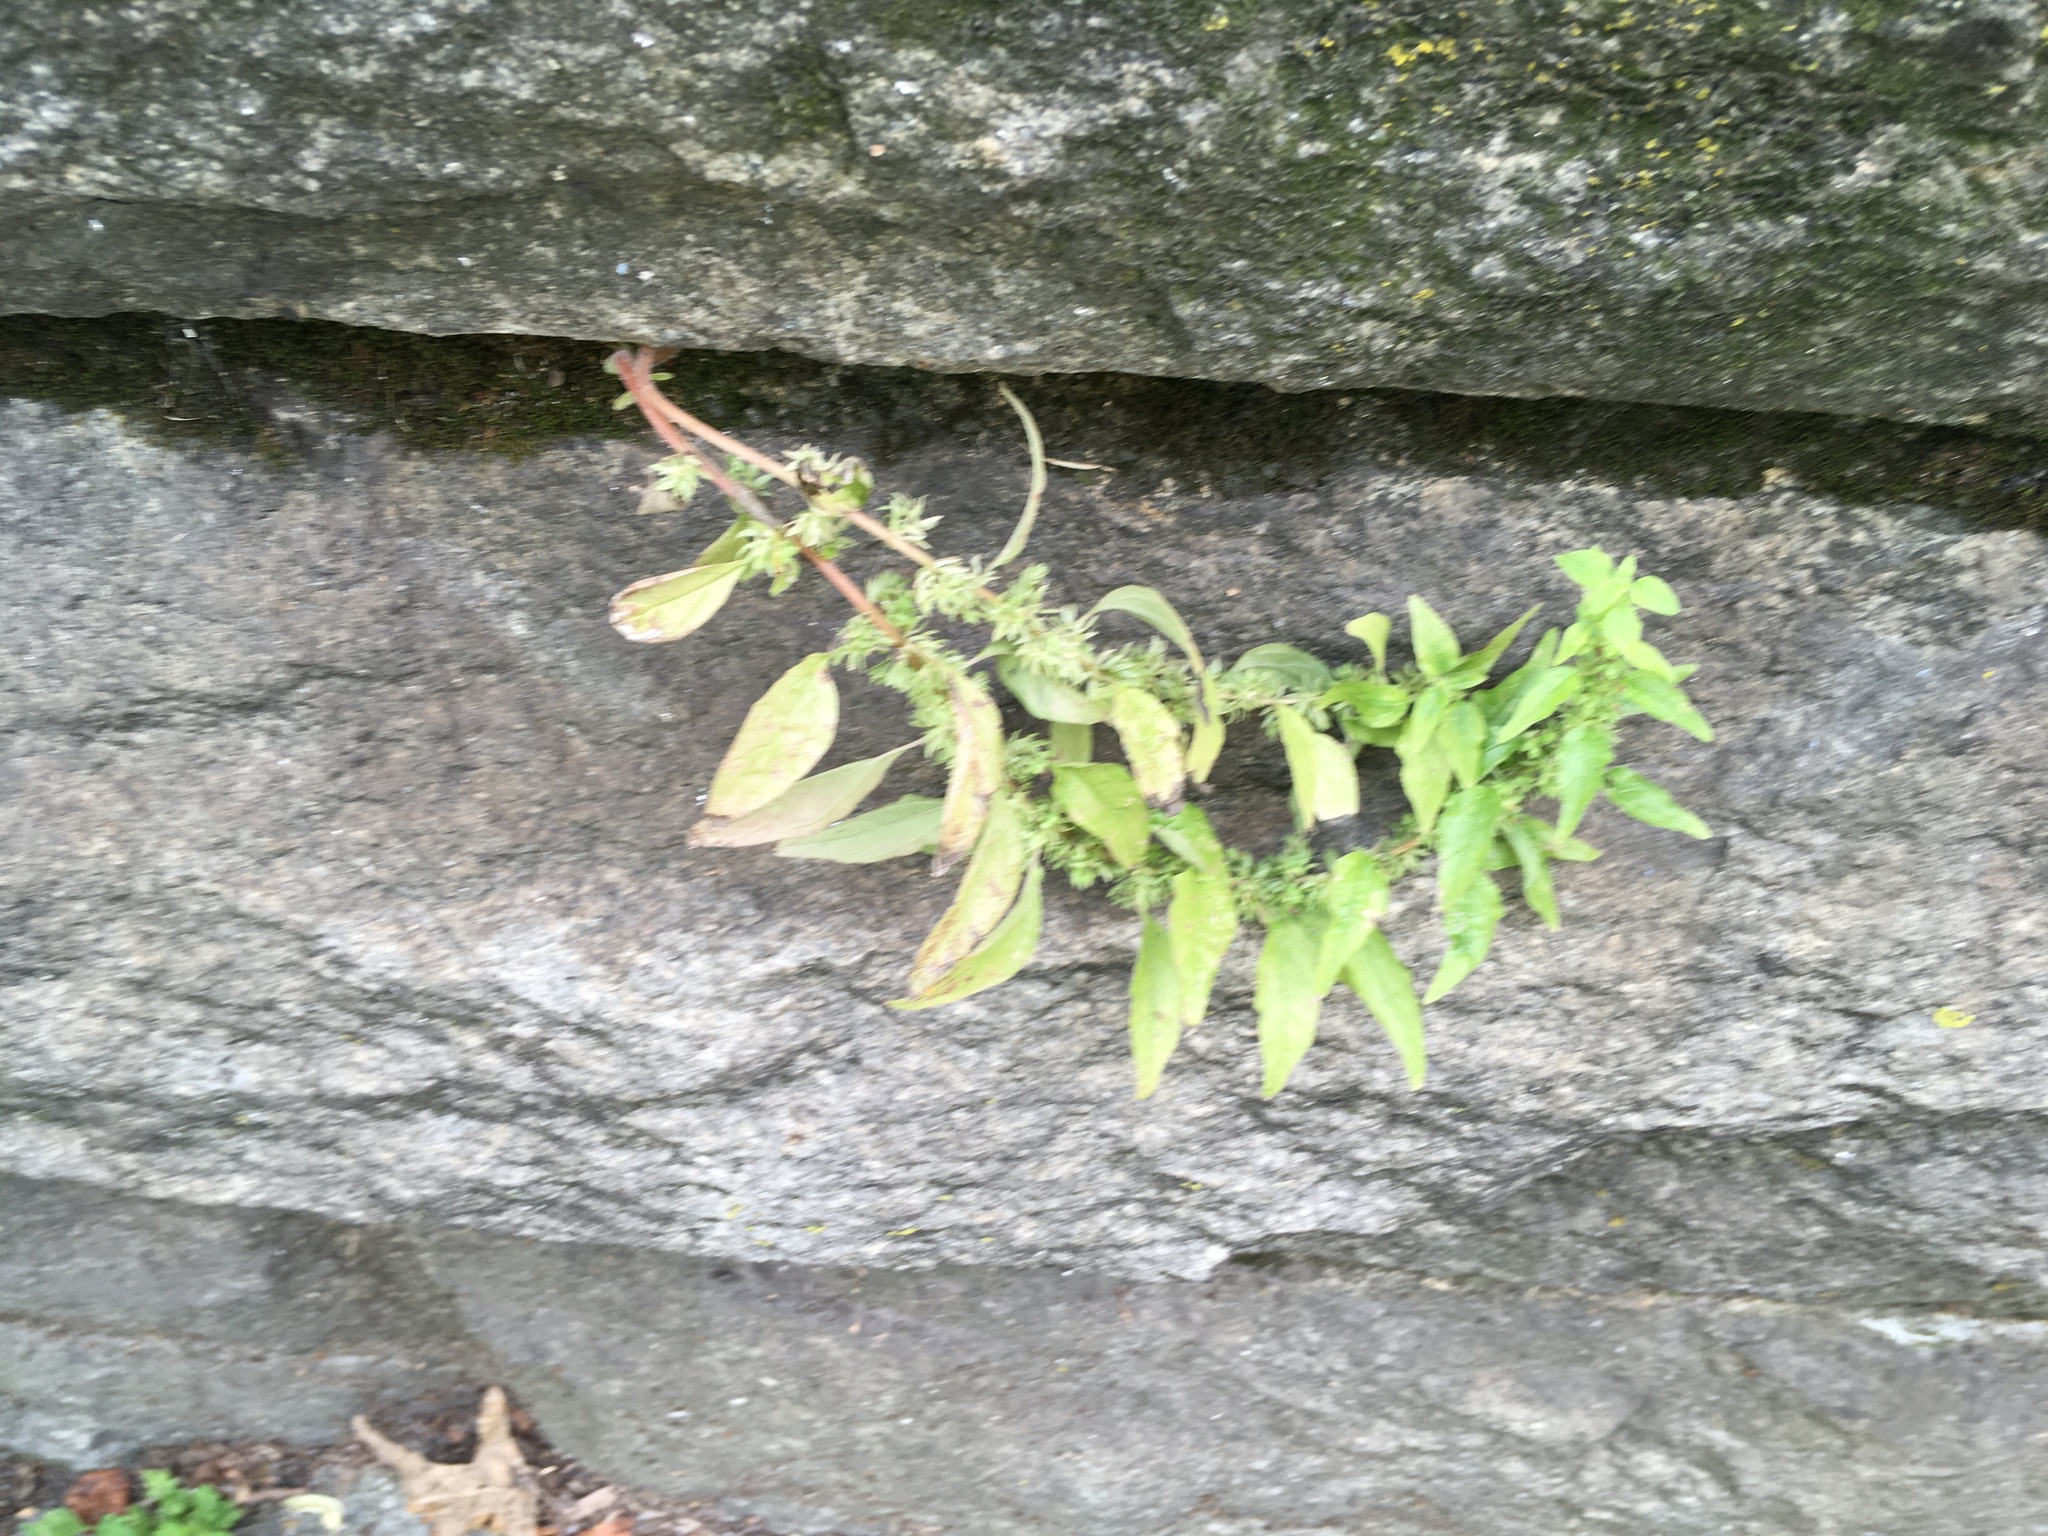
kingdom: Plantae
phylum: Tracheophyta
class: Magnoliopsida
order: Rosales
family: Urticaceae
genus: Parietaria
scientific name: Parietaria pensylvanica
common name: Pennsylvania pellitory
